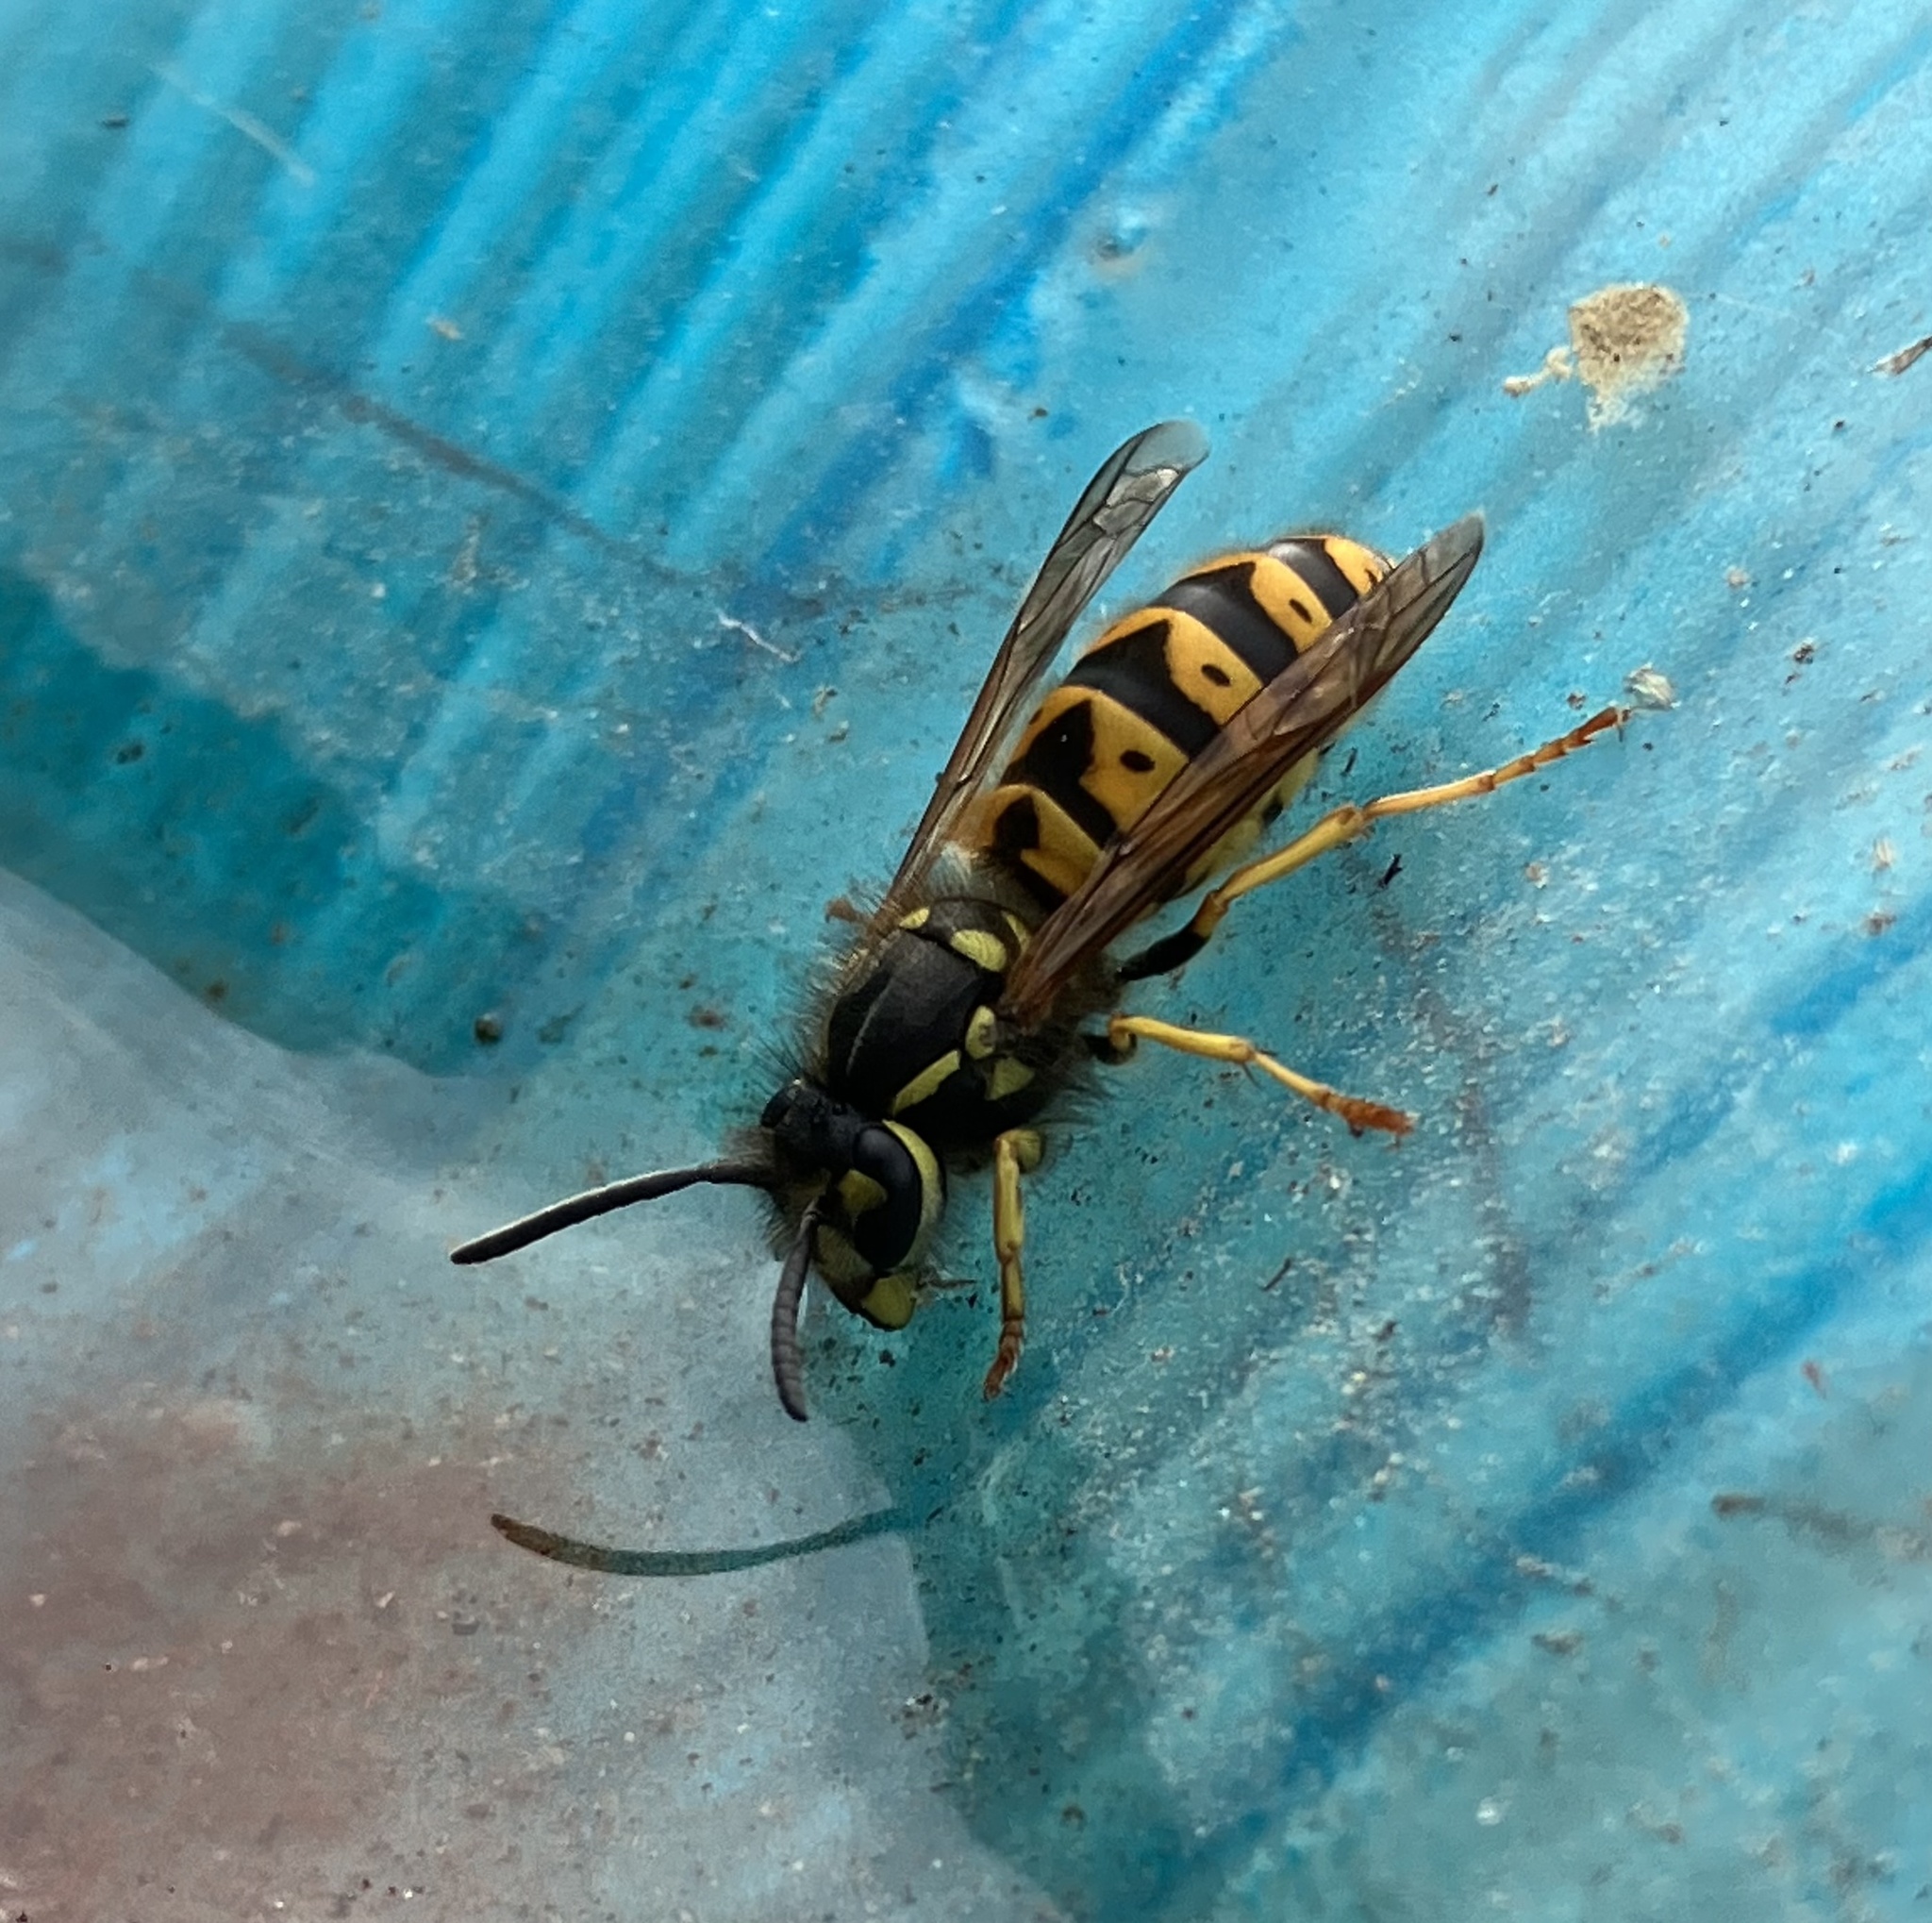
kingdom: Animalia
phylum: Arthropoda
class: Insecta
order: Hymenoptera
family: Vespidae
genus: Vespula
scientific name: Vespula germanica
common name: German wasp
